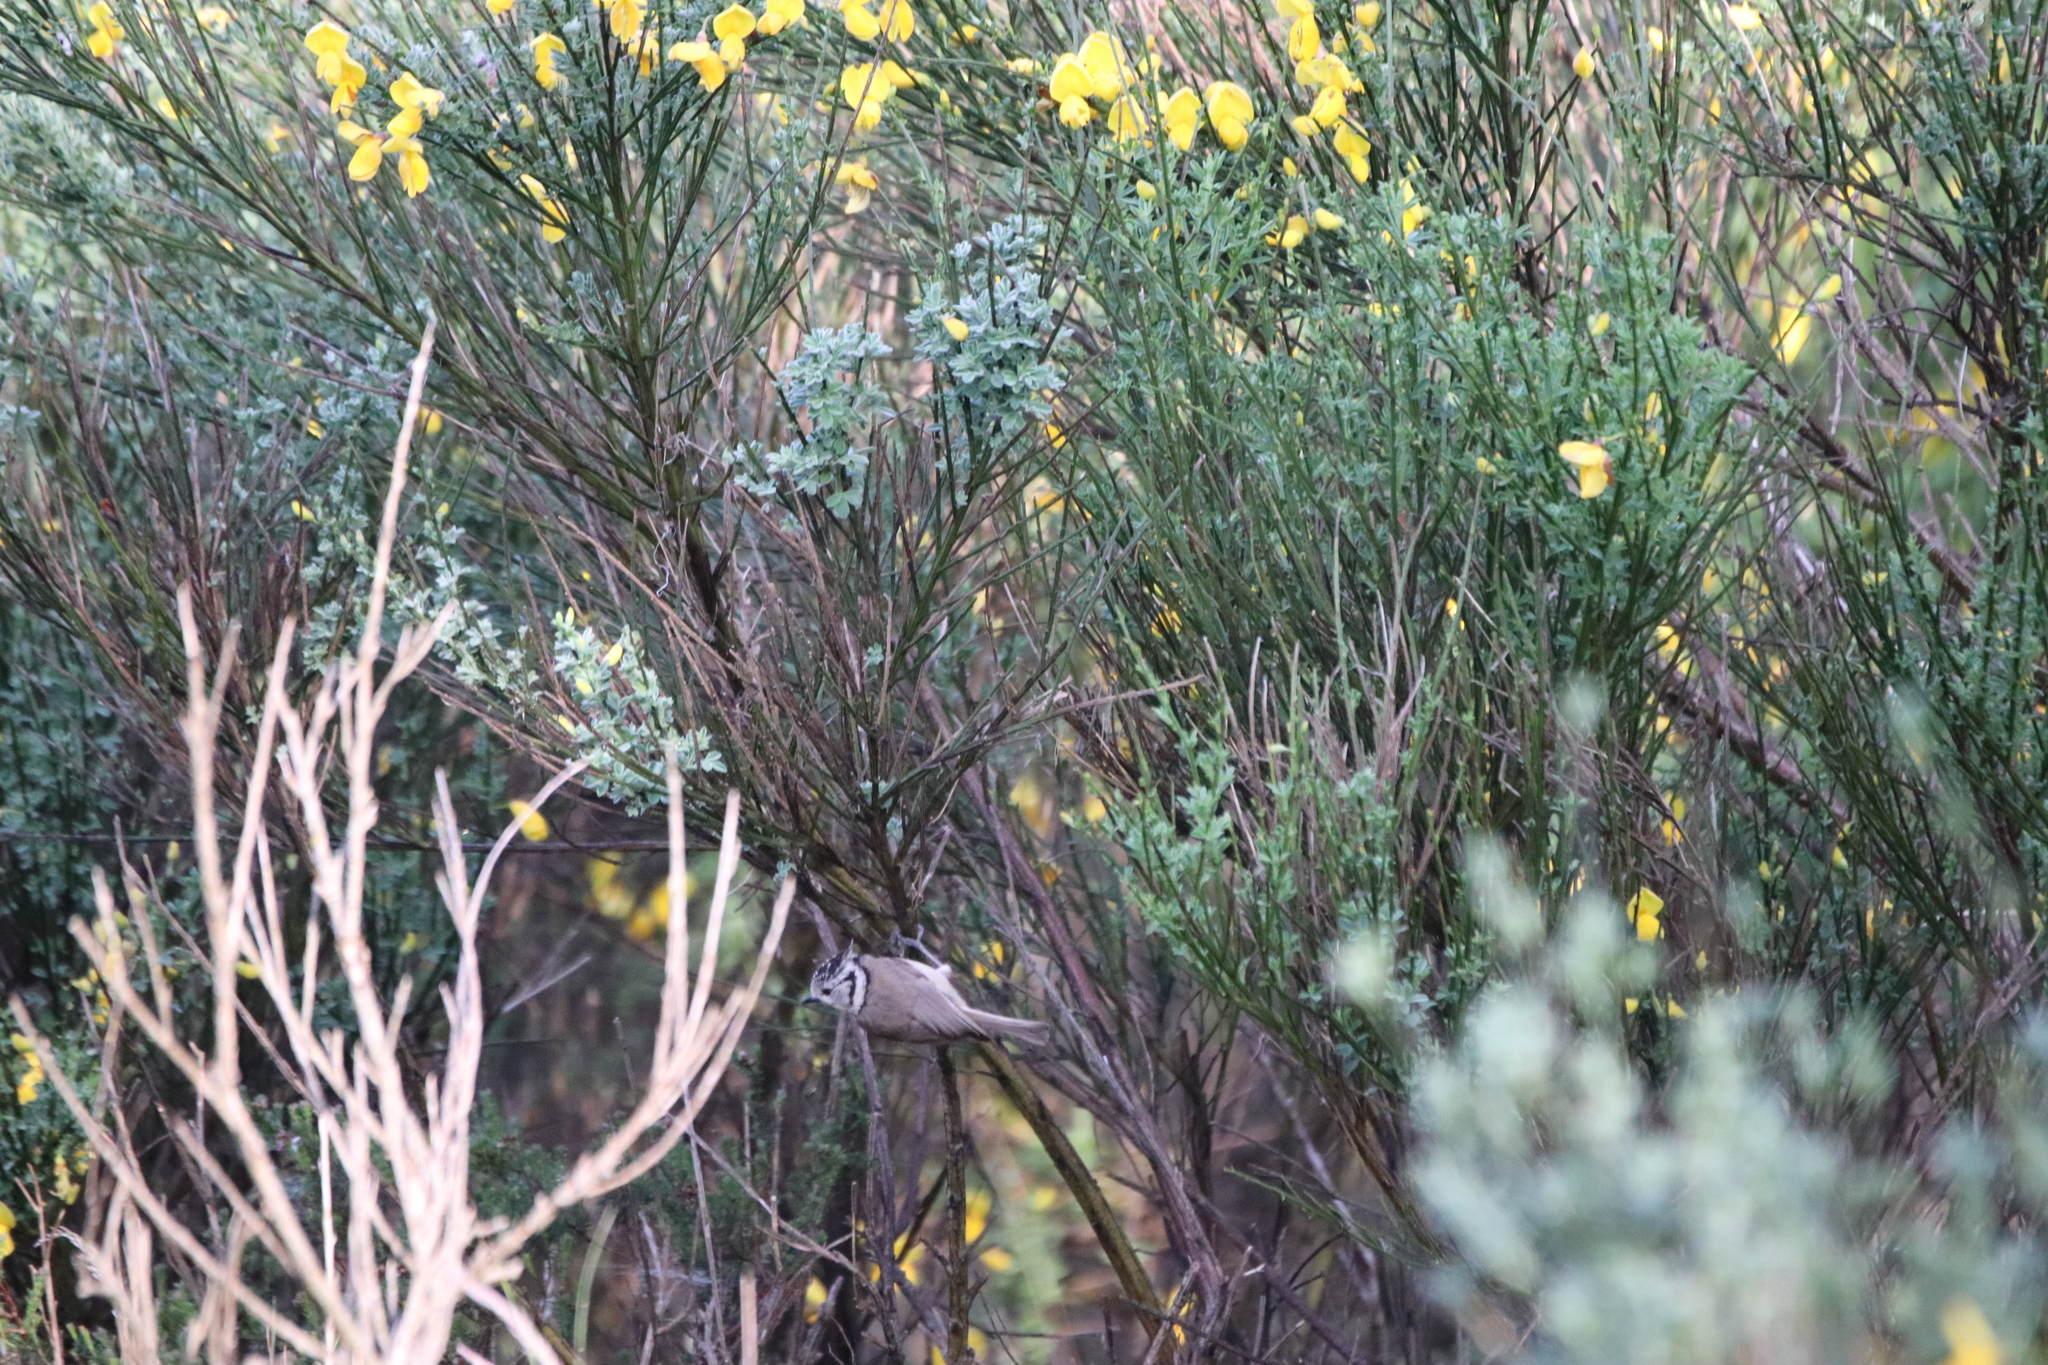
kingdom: Animalia
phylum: Chordata
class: Aves
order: Passeriformes
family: Paridae
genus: Lophophanes
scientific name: Lophophanes cristatus
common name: European crested tit
